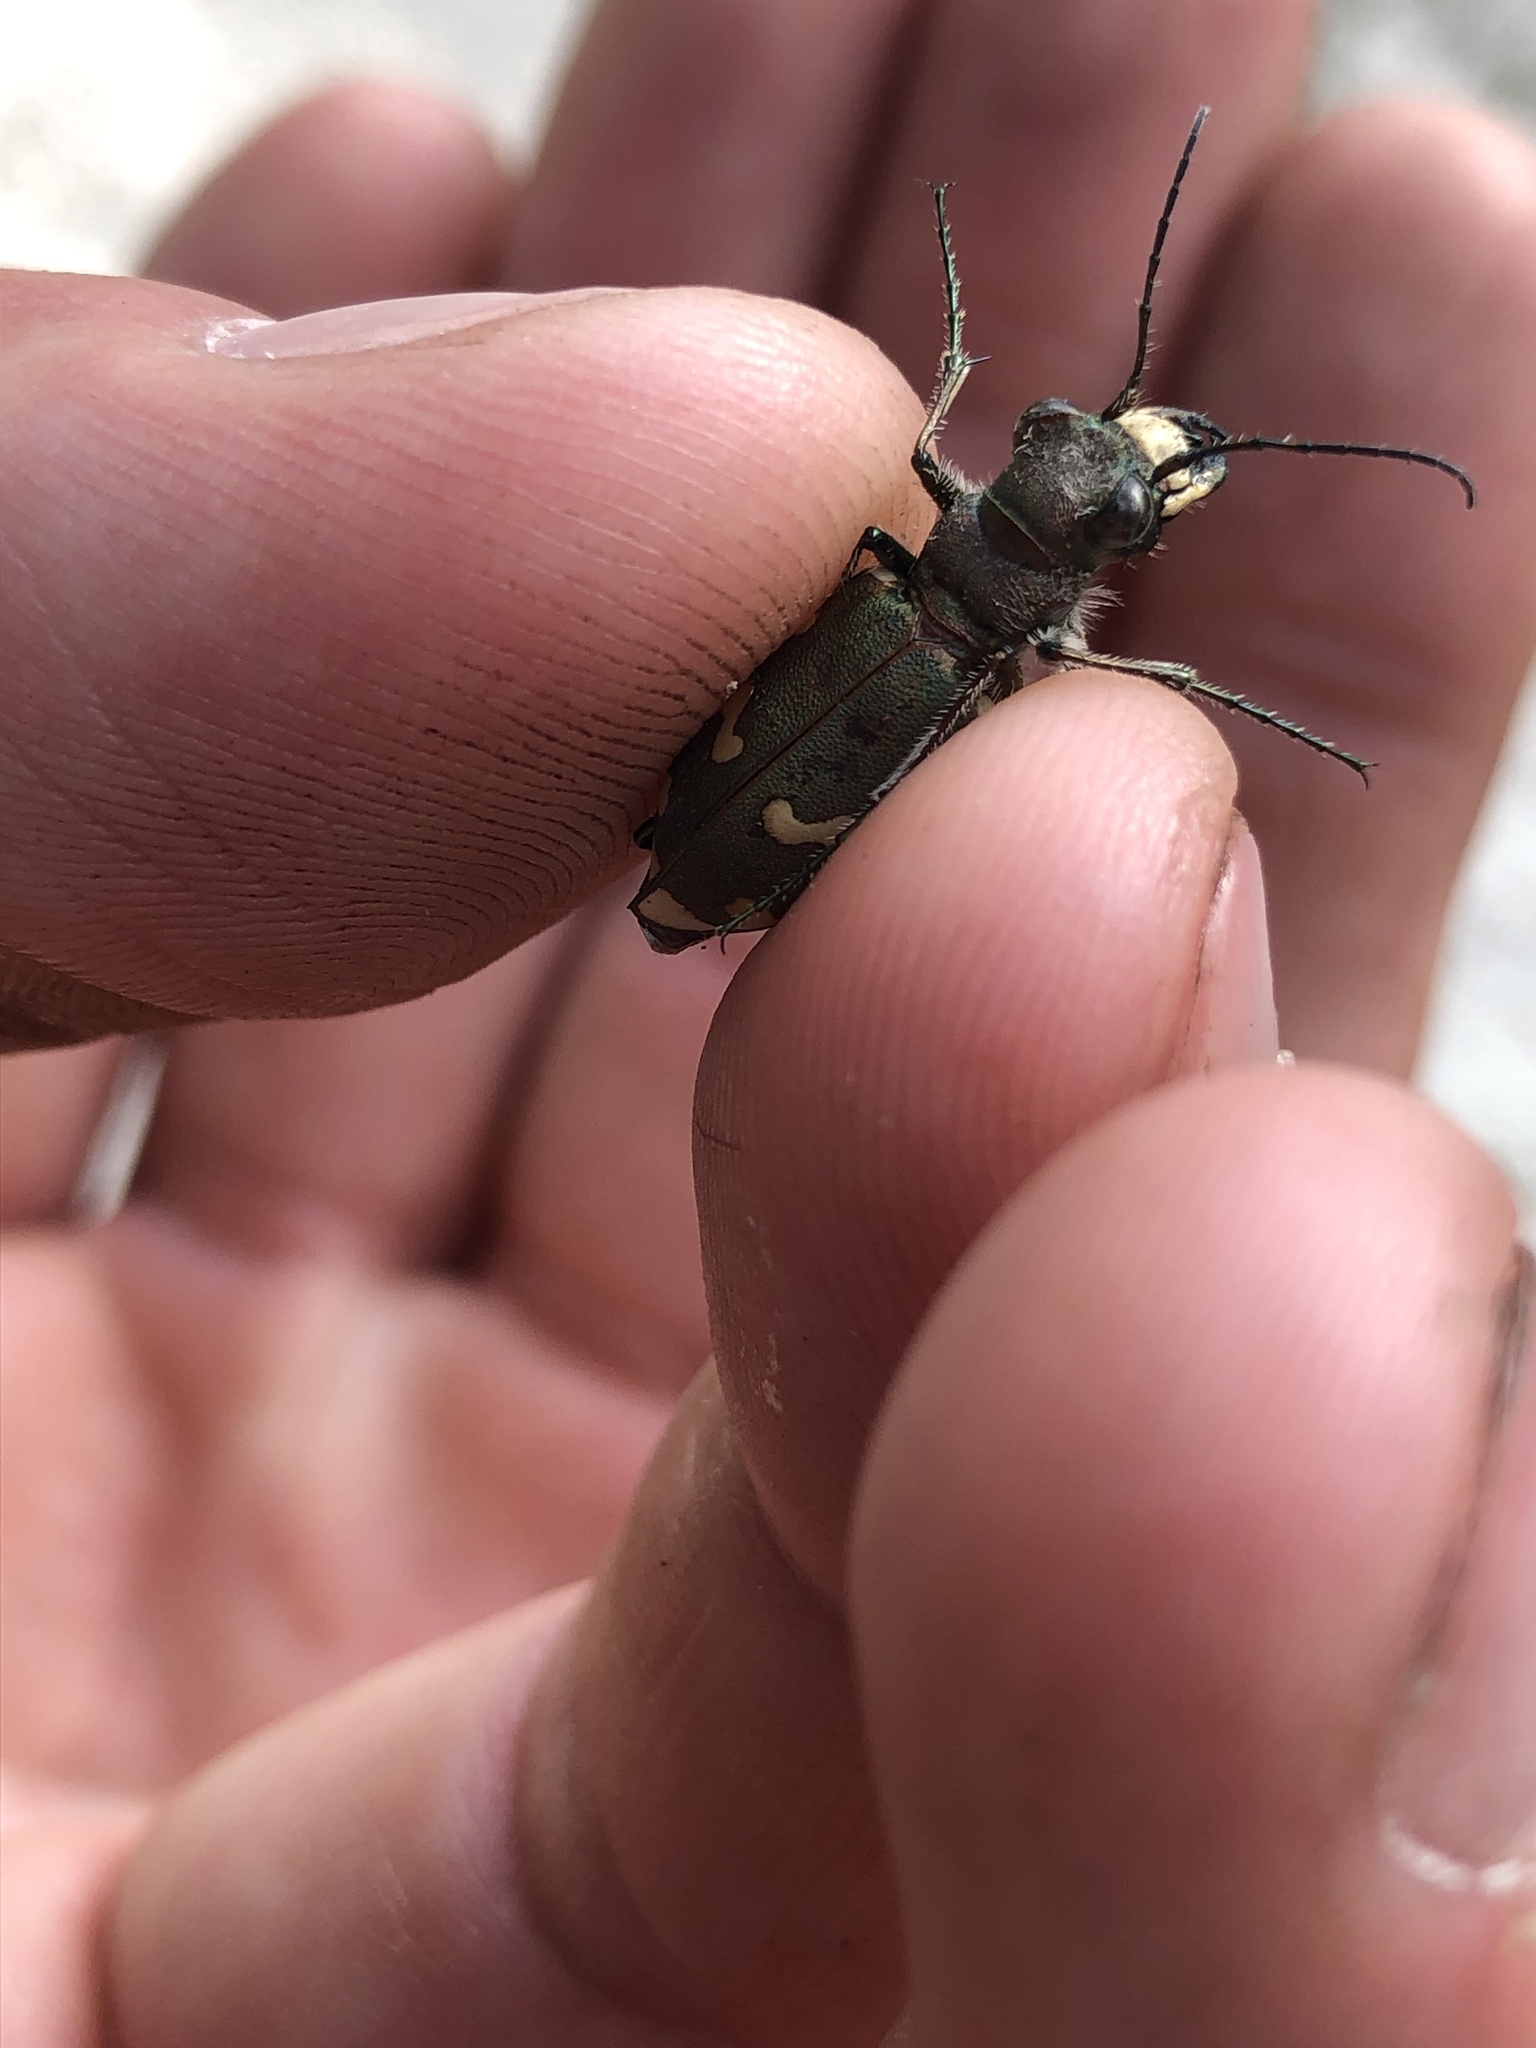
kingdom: Animalia
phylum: Arthropoda
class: Insecta
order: Coleoptera
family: Carabidae
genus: Cicindela
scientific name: Cicindela sylvicola
